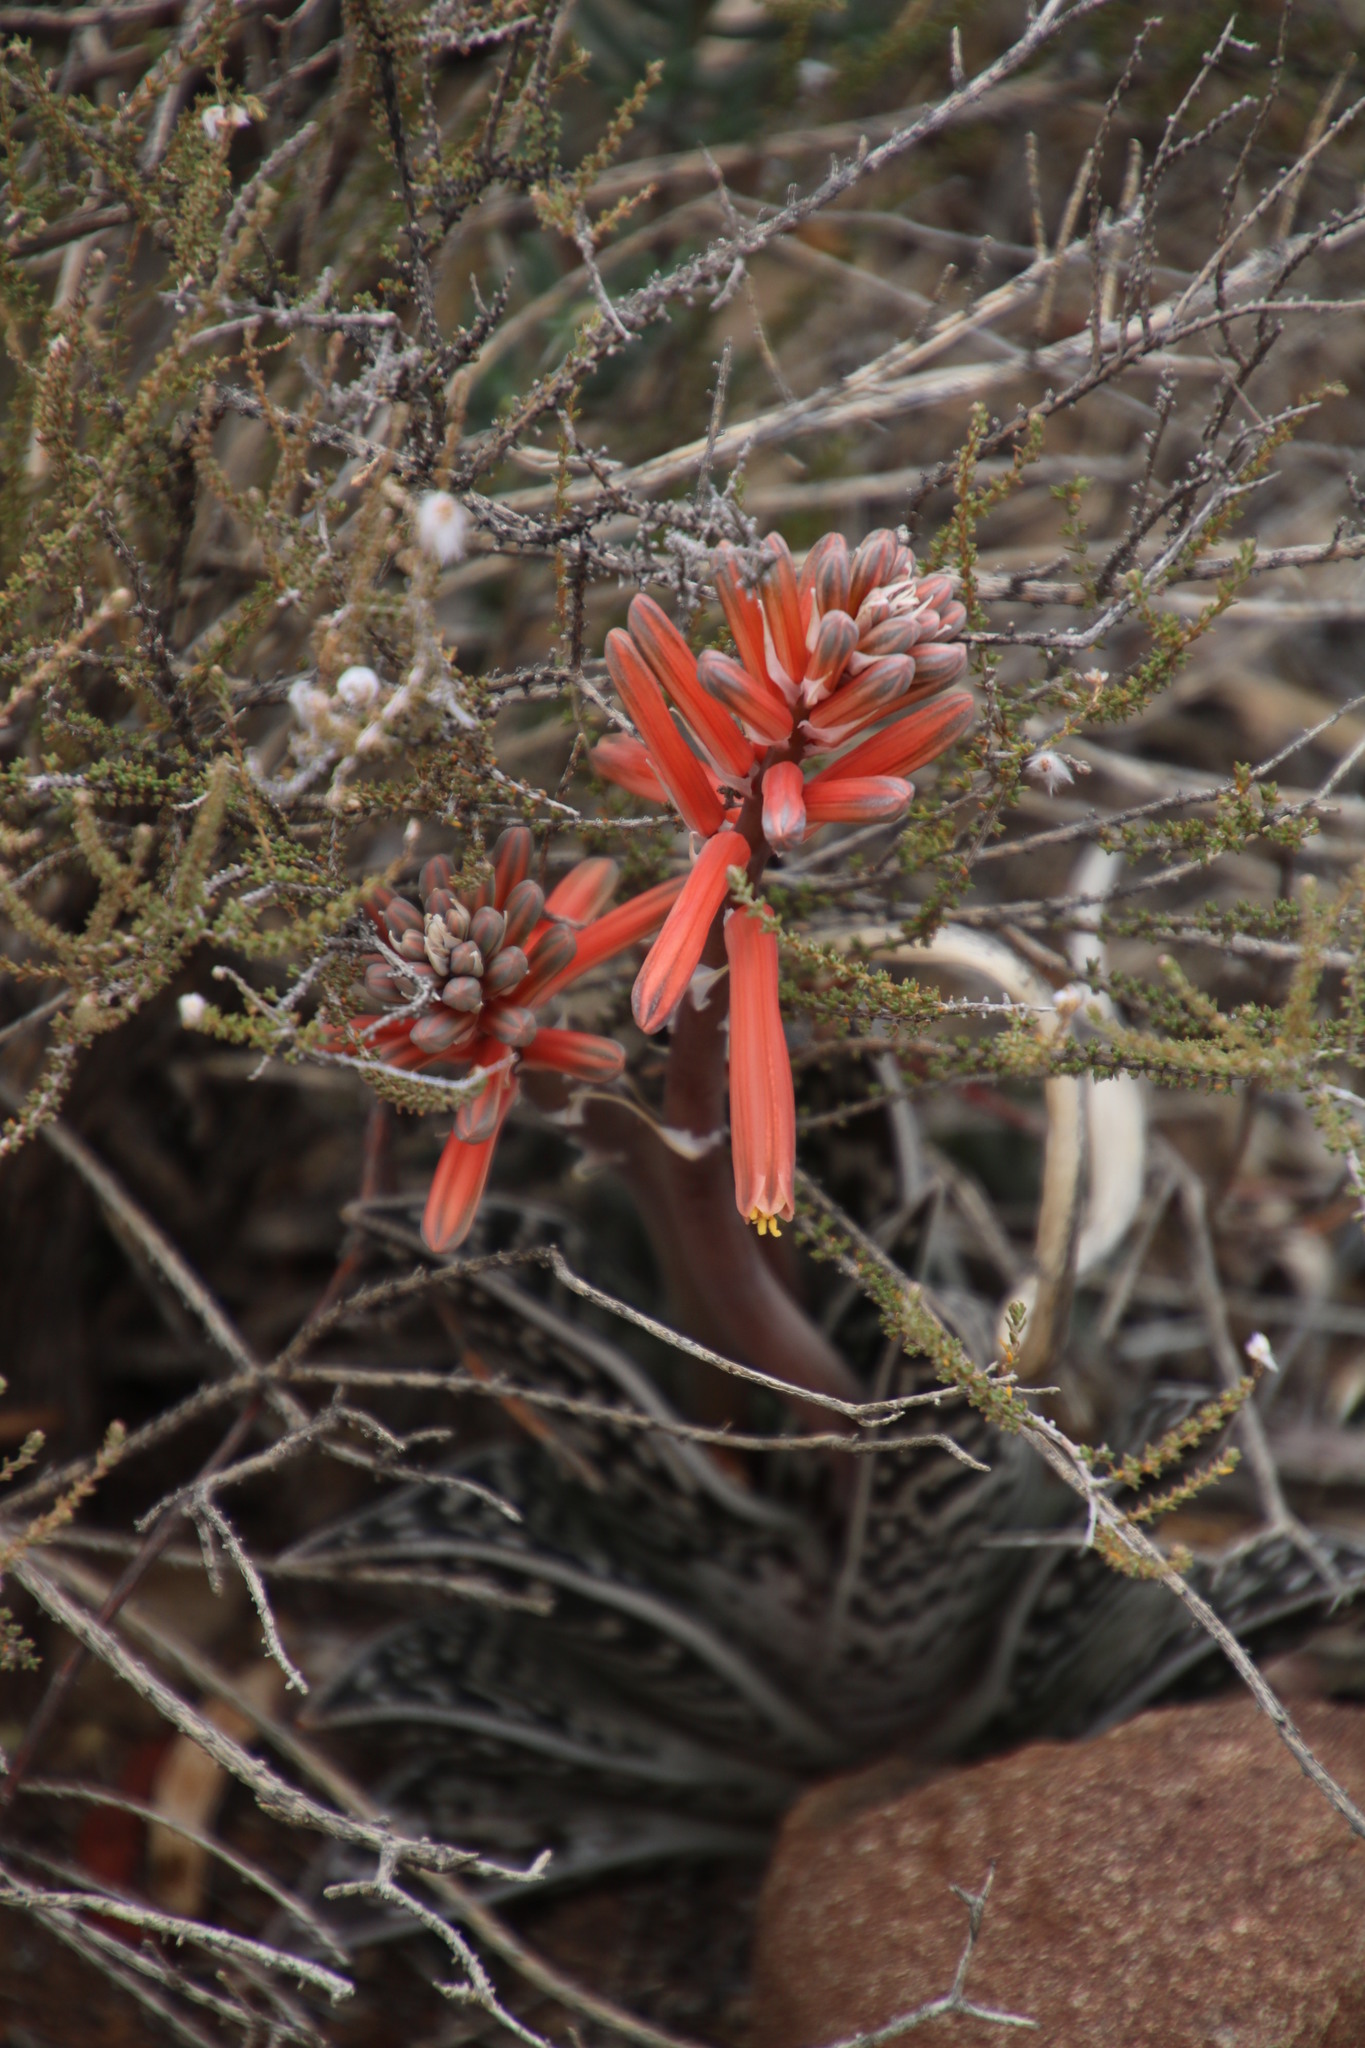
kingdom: Plantae
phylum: Tracheophyta
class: Liliopsida
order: Asparagales
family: Asphodelaceae
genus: Gonialoe
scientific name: Gonialoe variegata
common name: Aloe variegata
